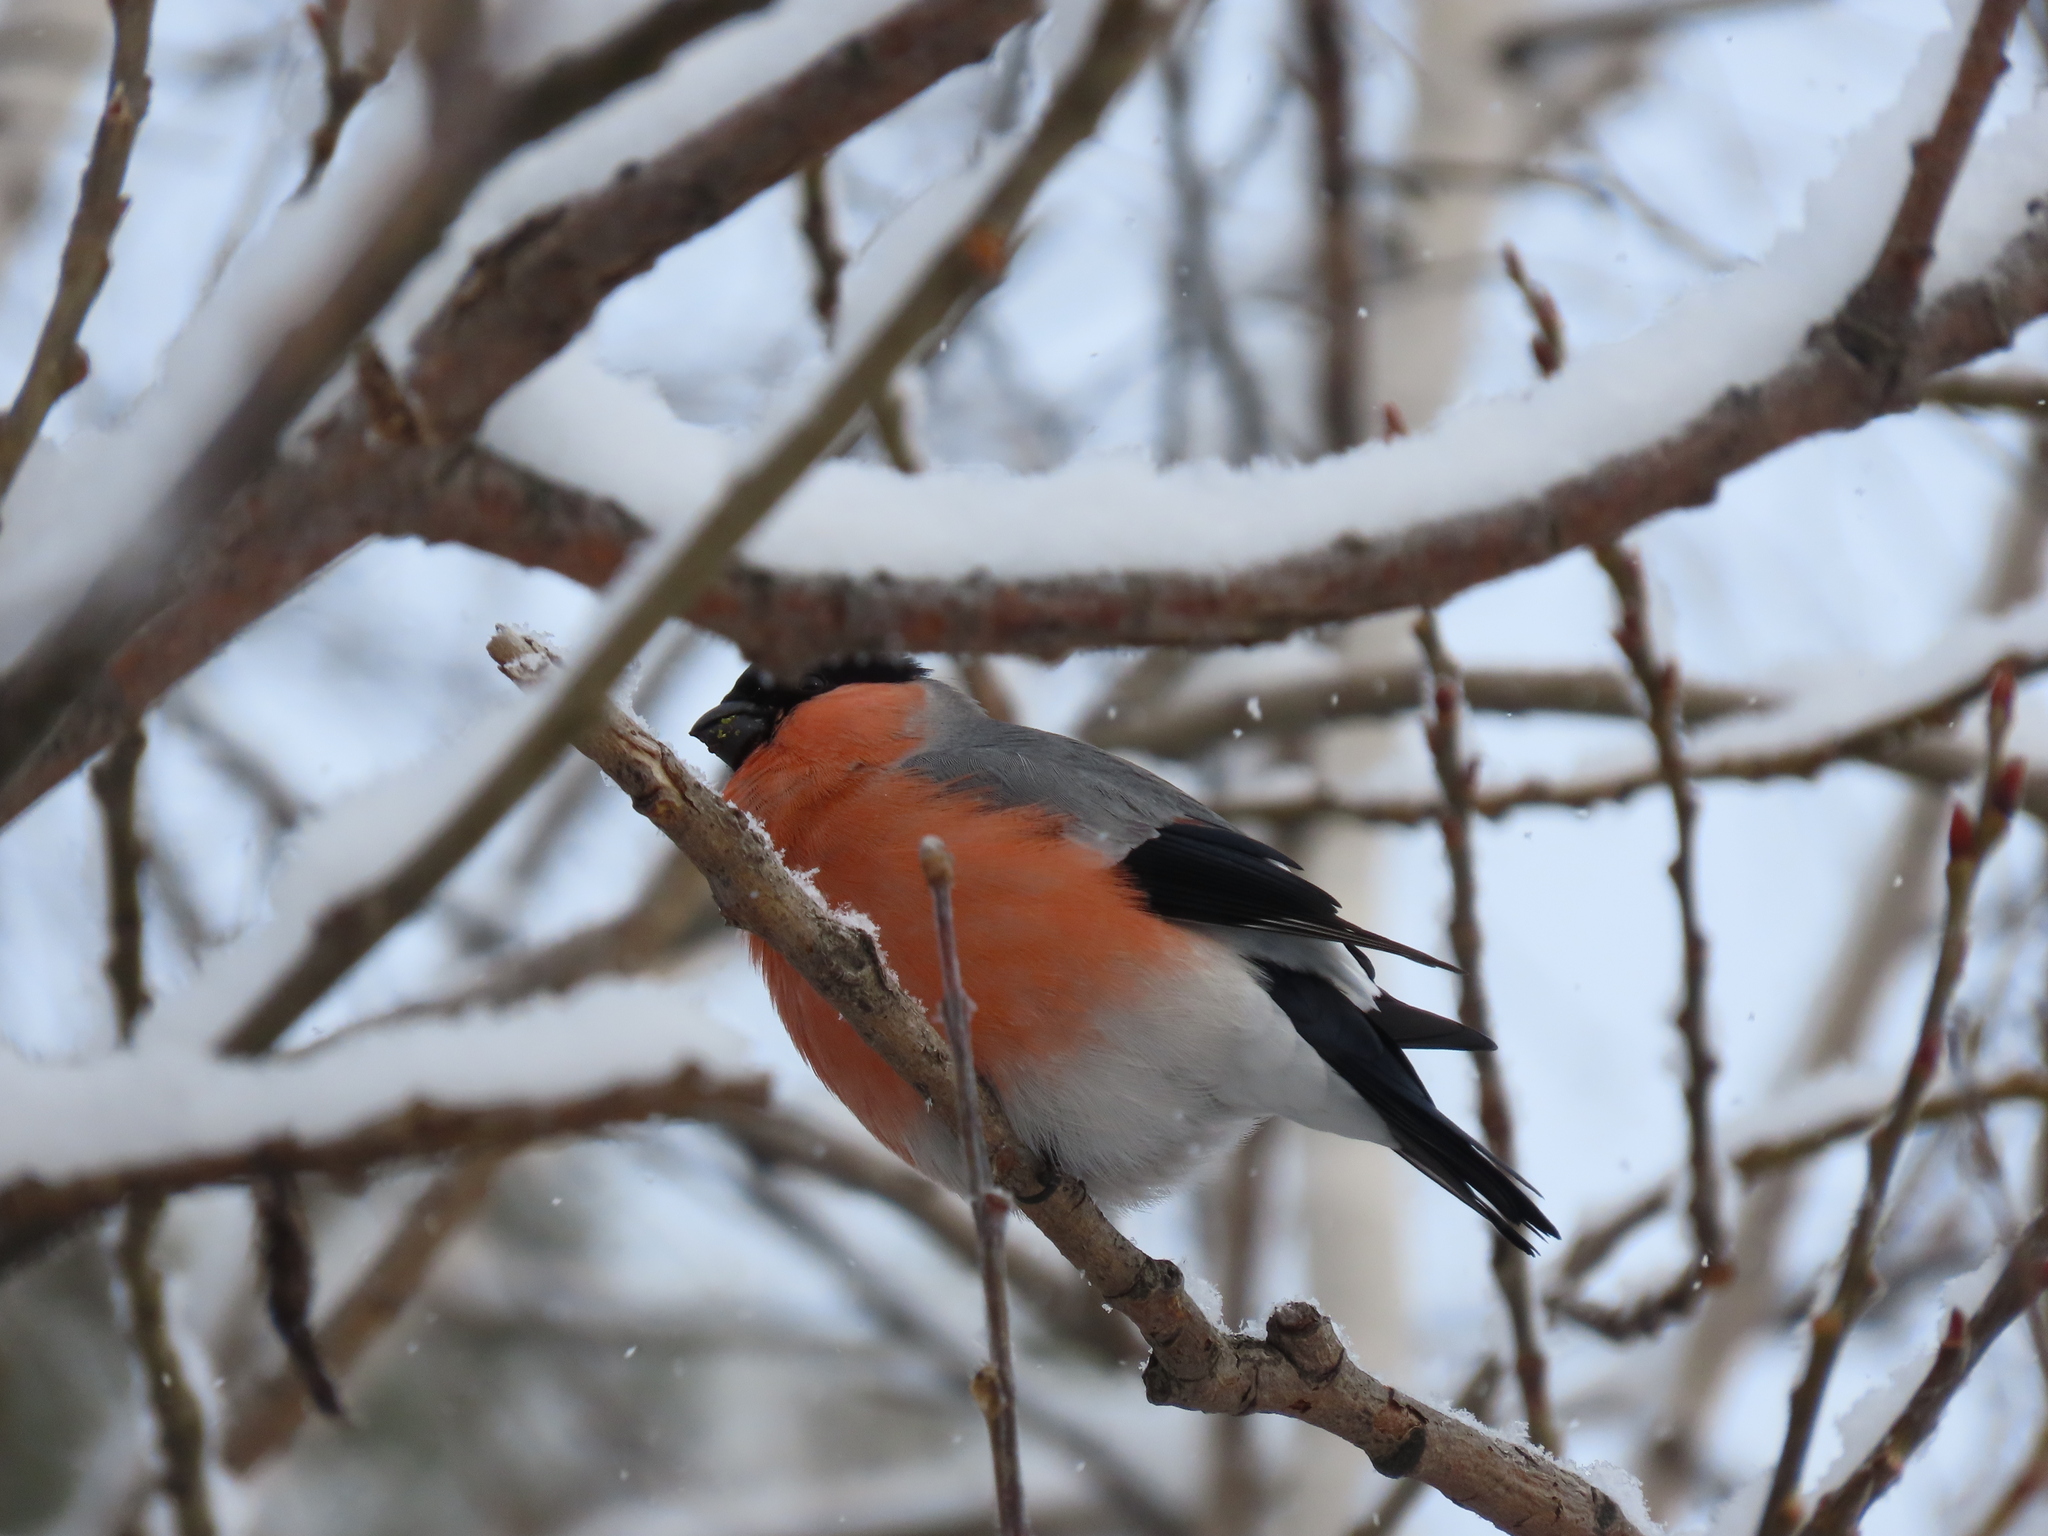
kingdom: Animalia
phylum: Chordata
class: Aves
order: Passeriformes
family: Fringillidae
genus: Pyrrhula
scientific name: Pyrrhula pyrrhula
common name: Eurasian bullfinch
